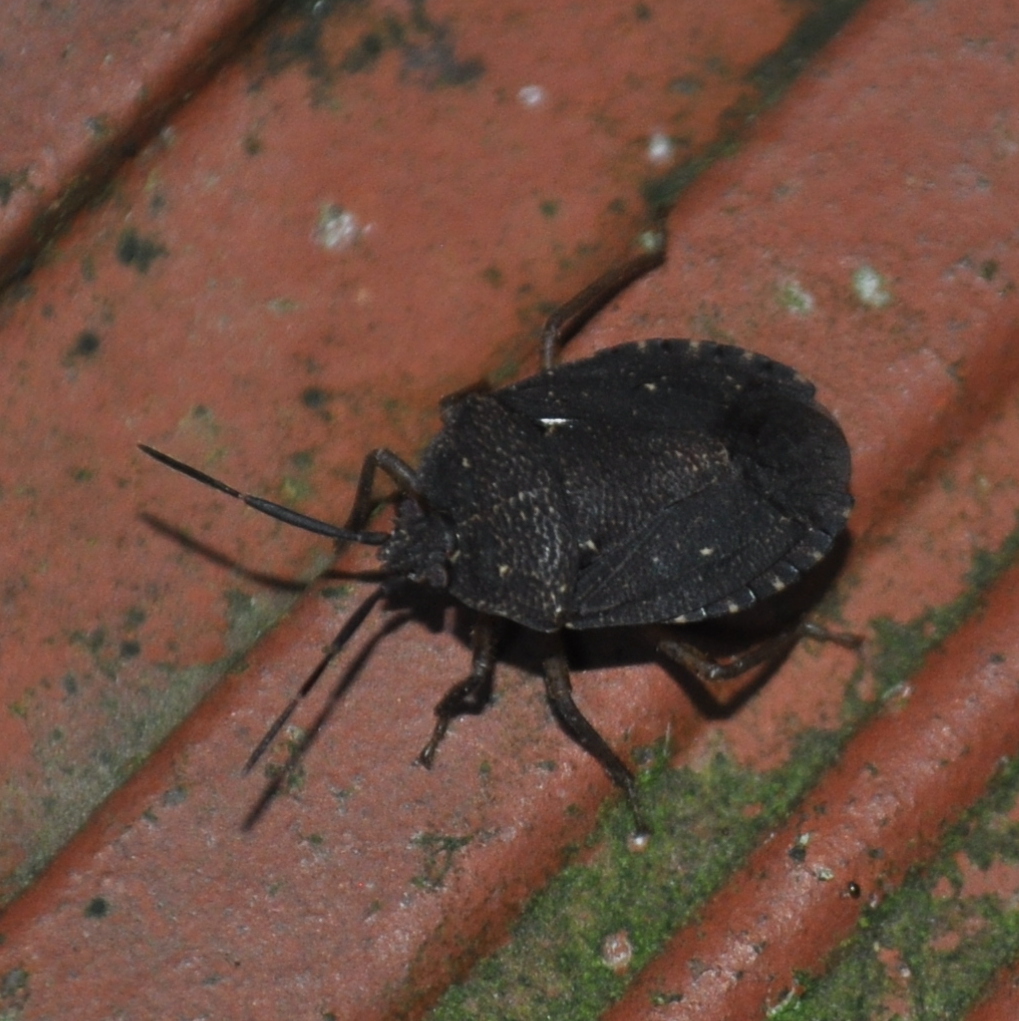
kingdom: Animalia
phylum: Arthropoda
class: Insecta
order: Hemiptera
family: Pentatomidae
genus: Macropygium
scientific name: Macropygium graziae
